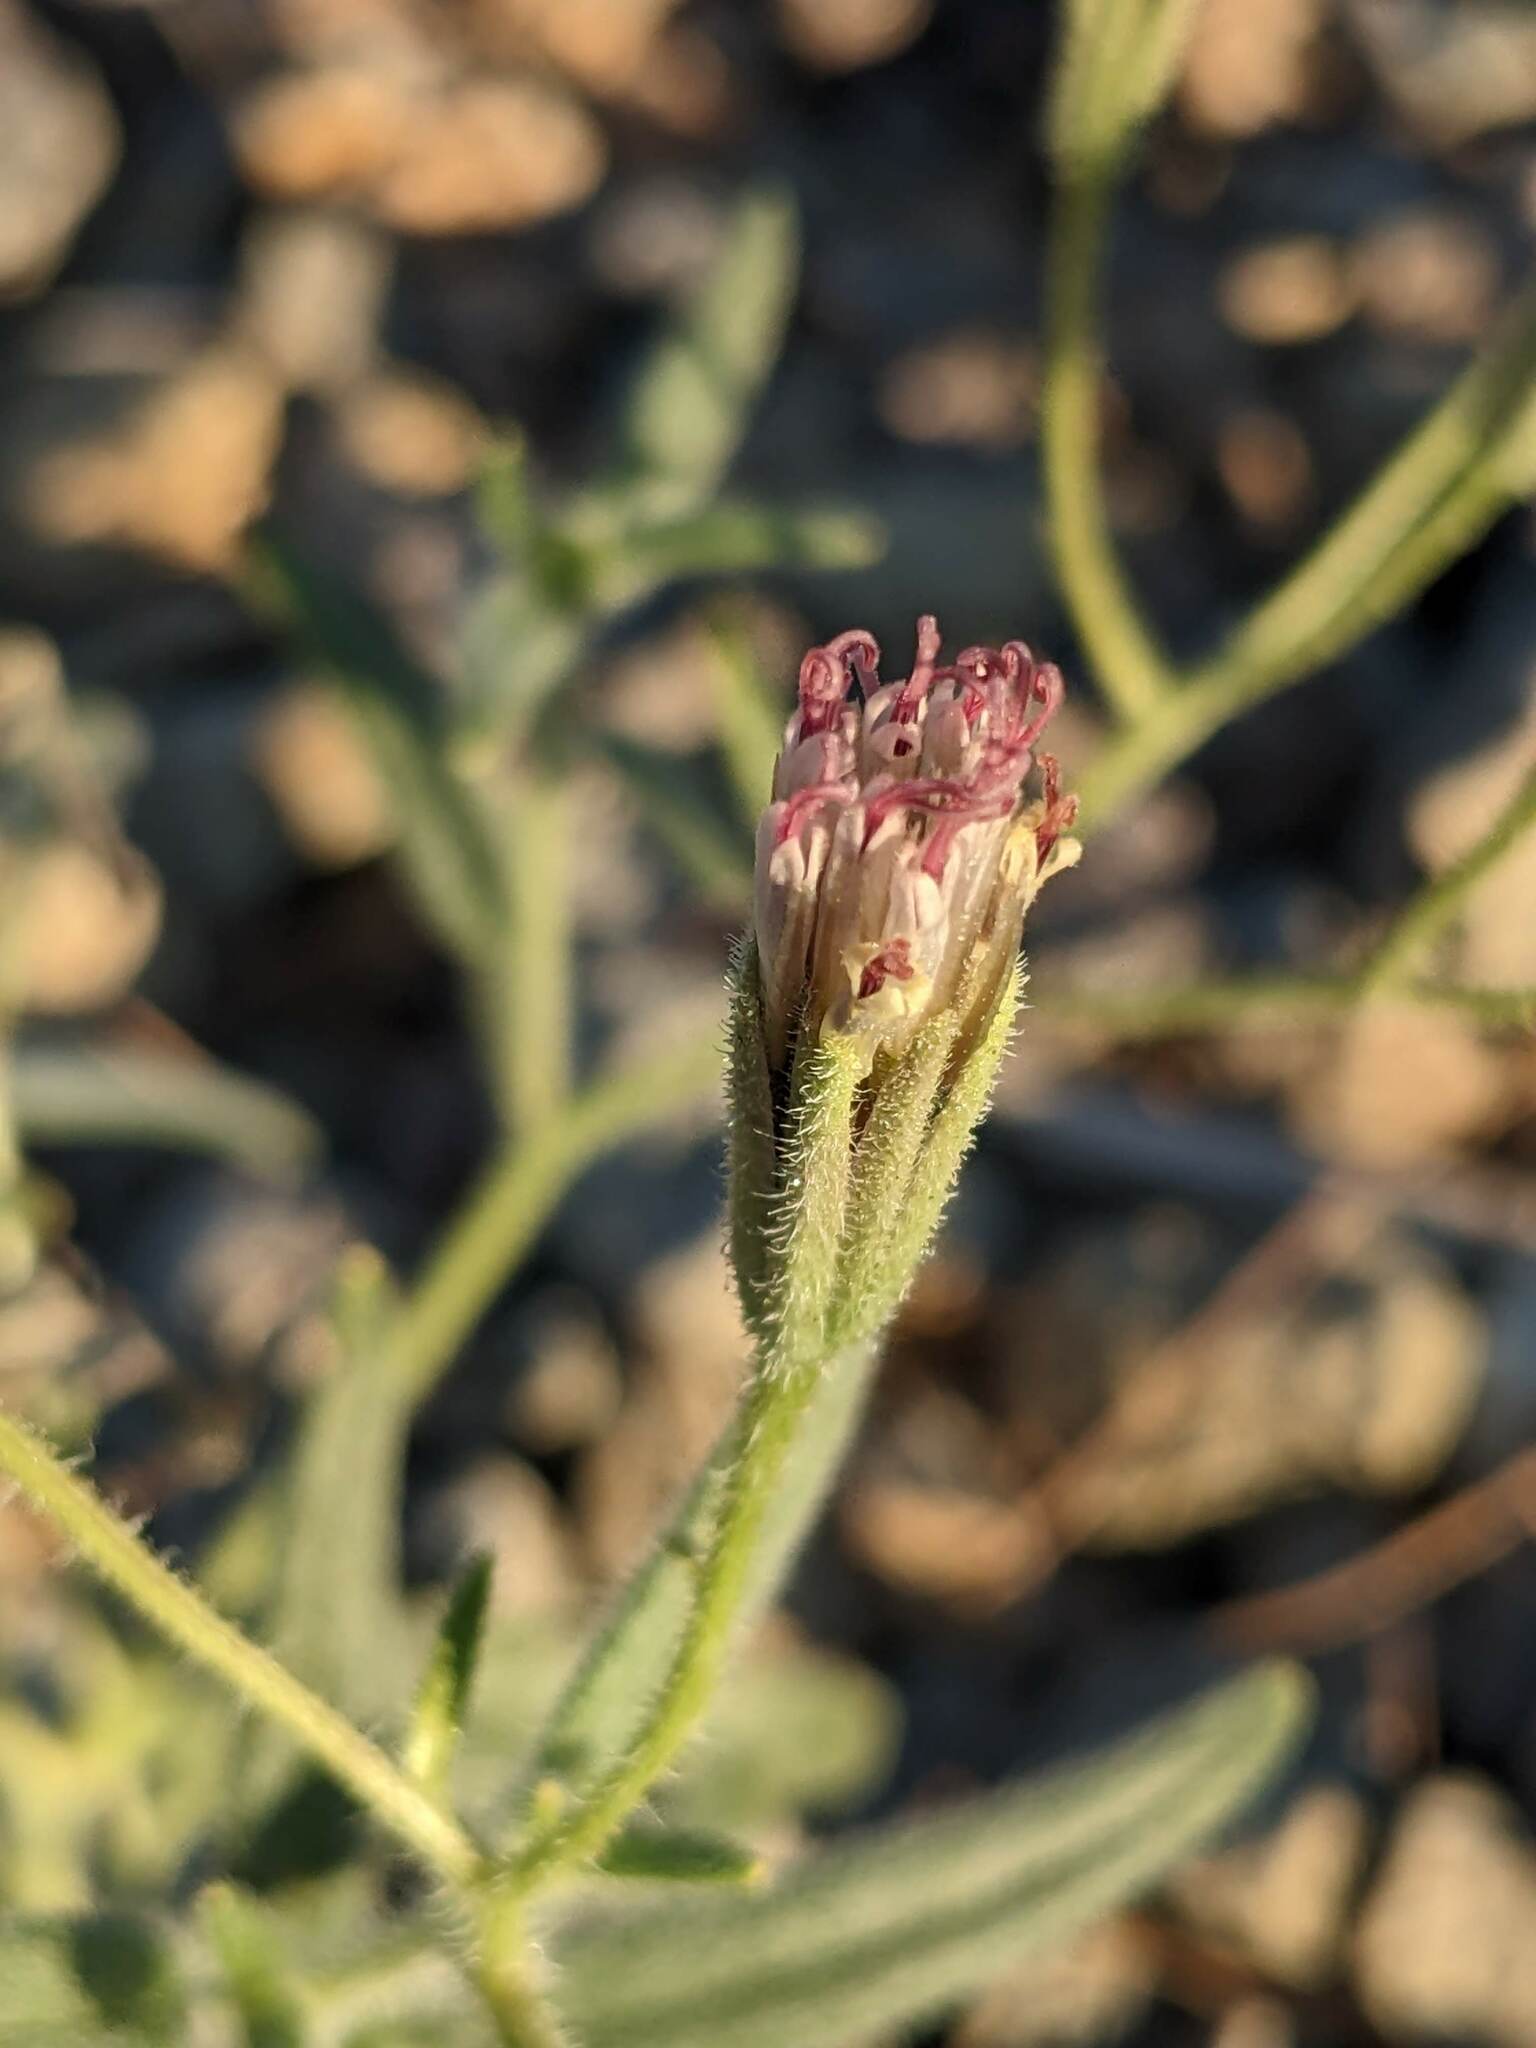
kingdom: Plantae
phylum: Tracheophyta
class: Magnoliopsida
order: Asterales
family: Asteraceae
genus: Palafoxia
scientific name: Palafoxia arida
